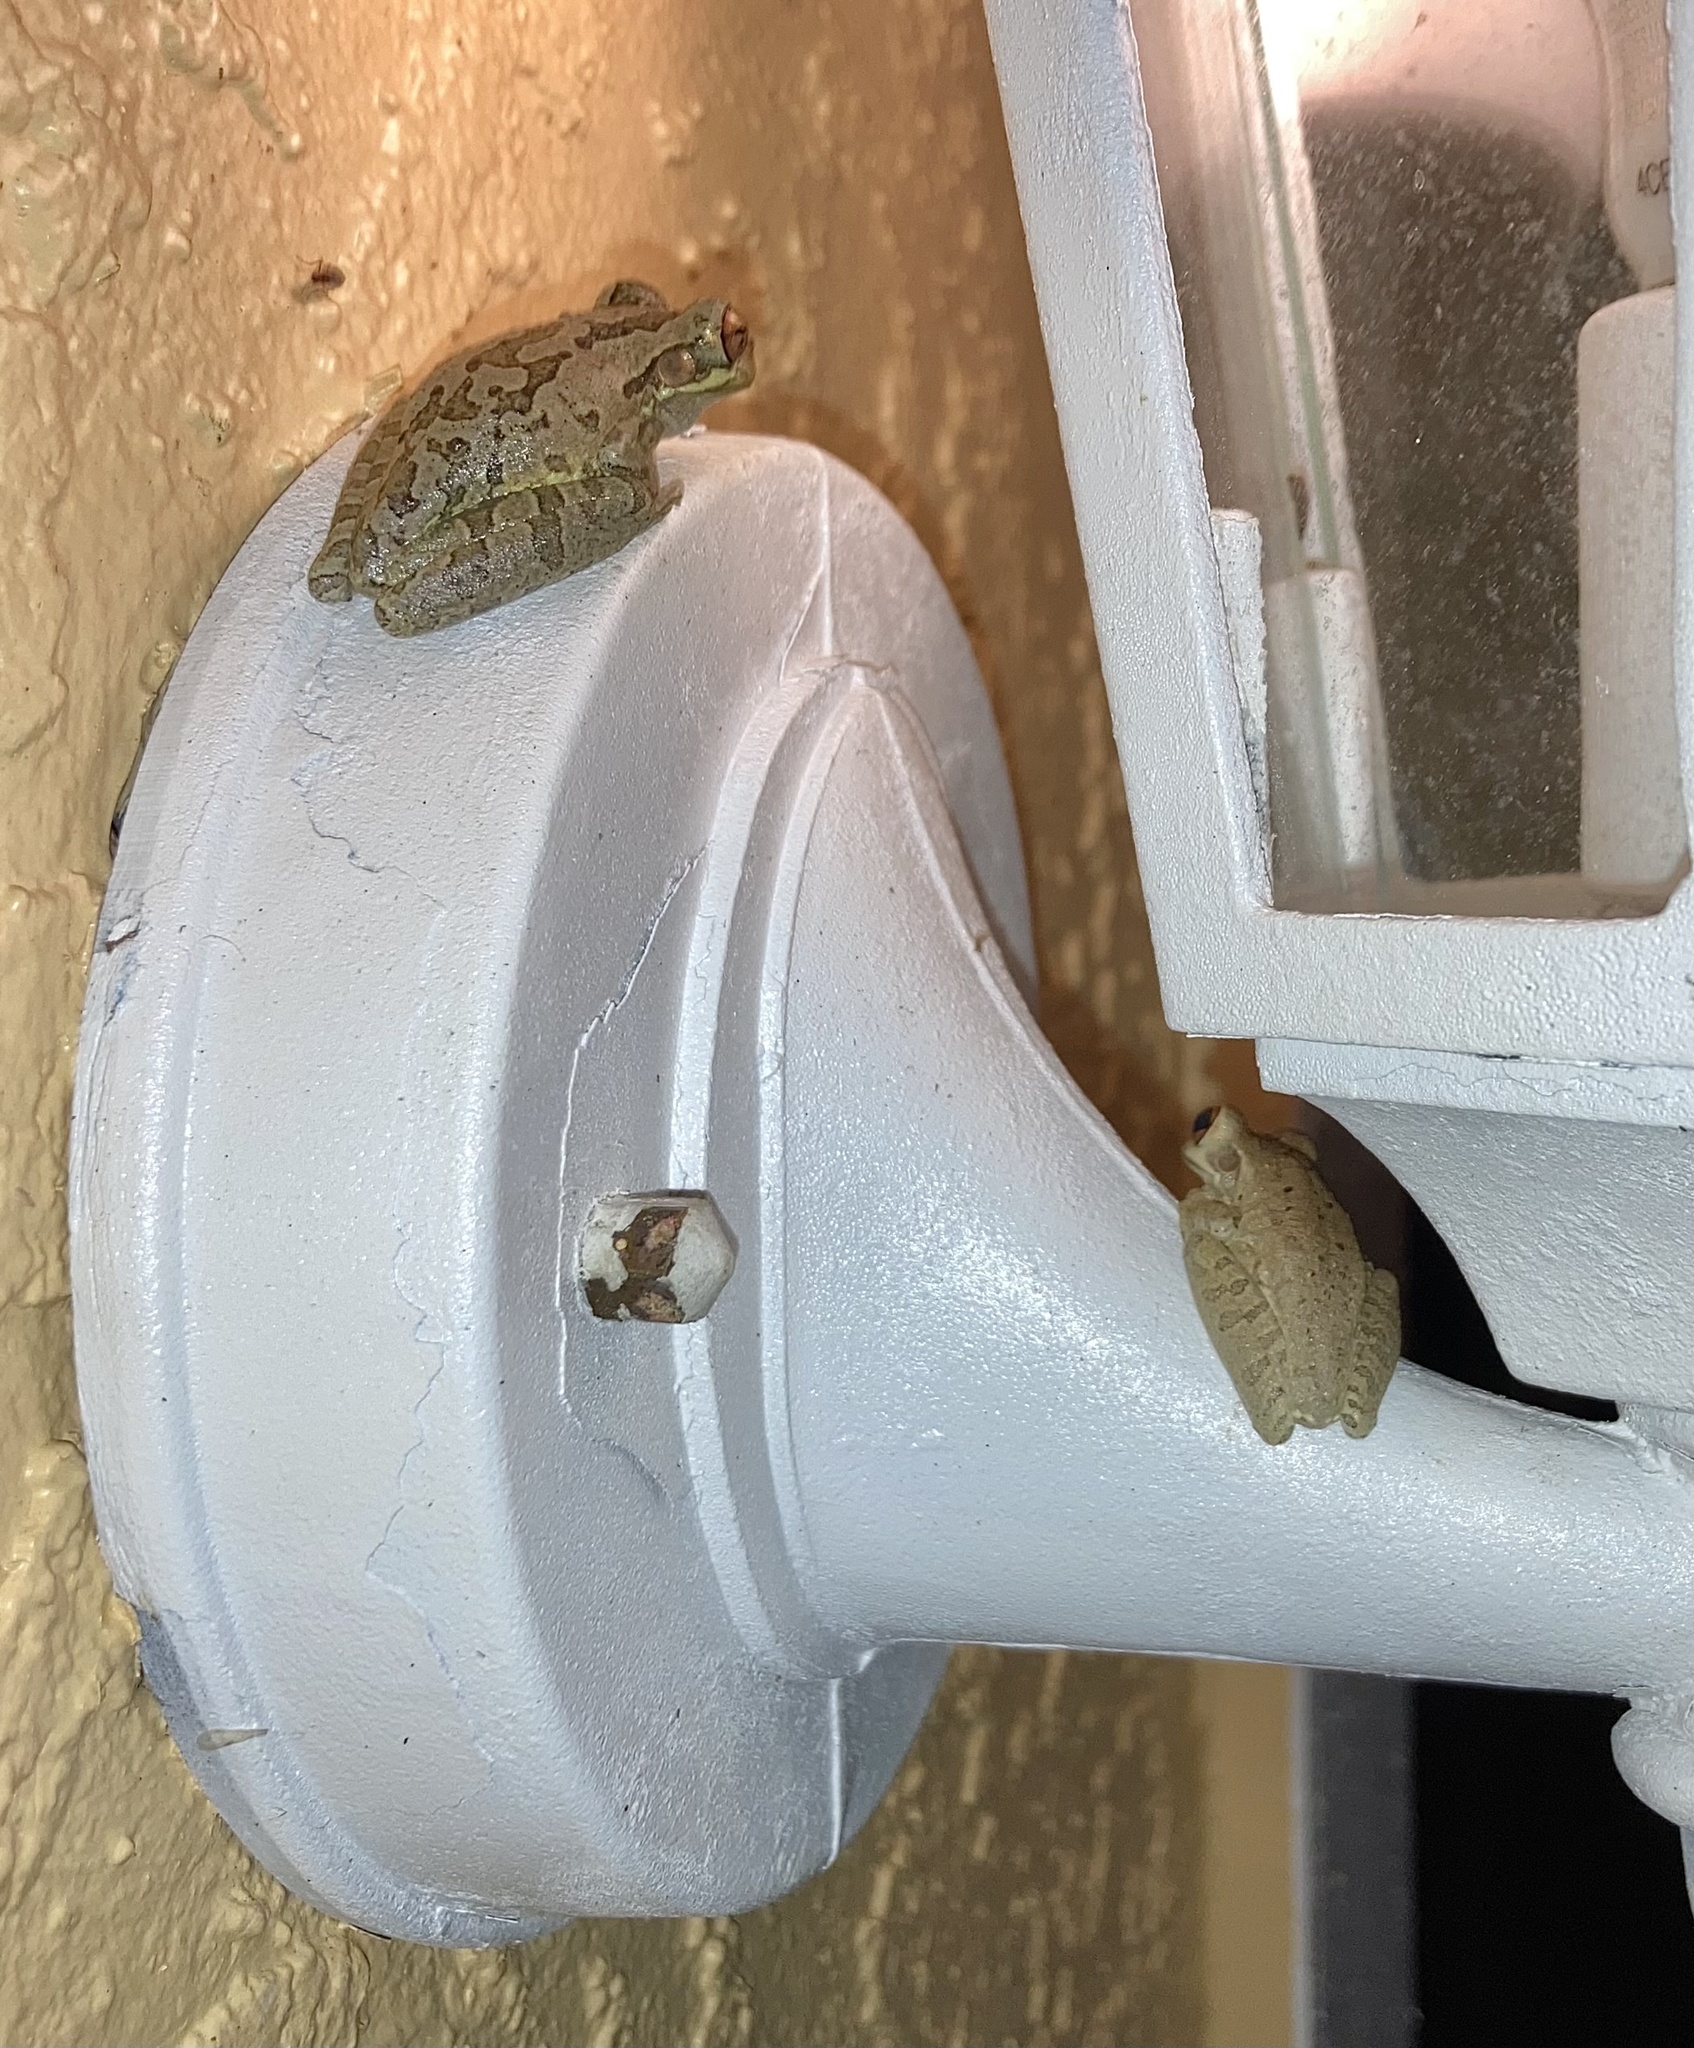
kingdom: Animalia
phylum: Chordata
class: Amphibia
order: Anura
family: Hylidae
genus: Osteopilus
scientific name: Osteopilus septentrionalis
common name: Cuban treefrog
